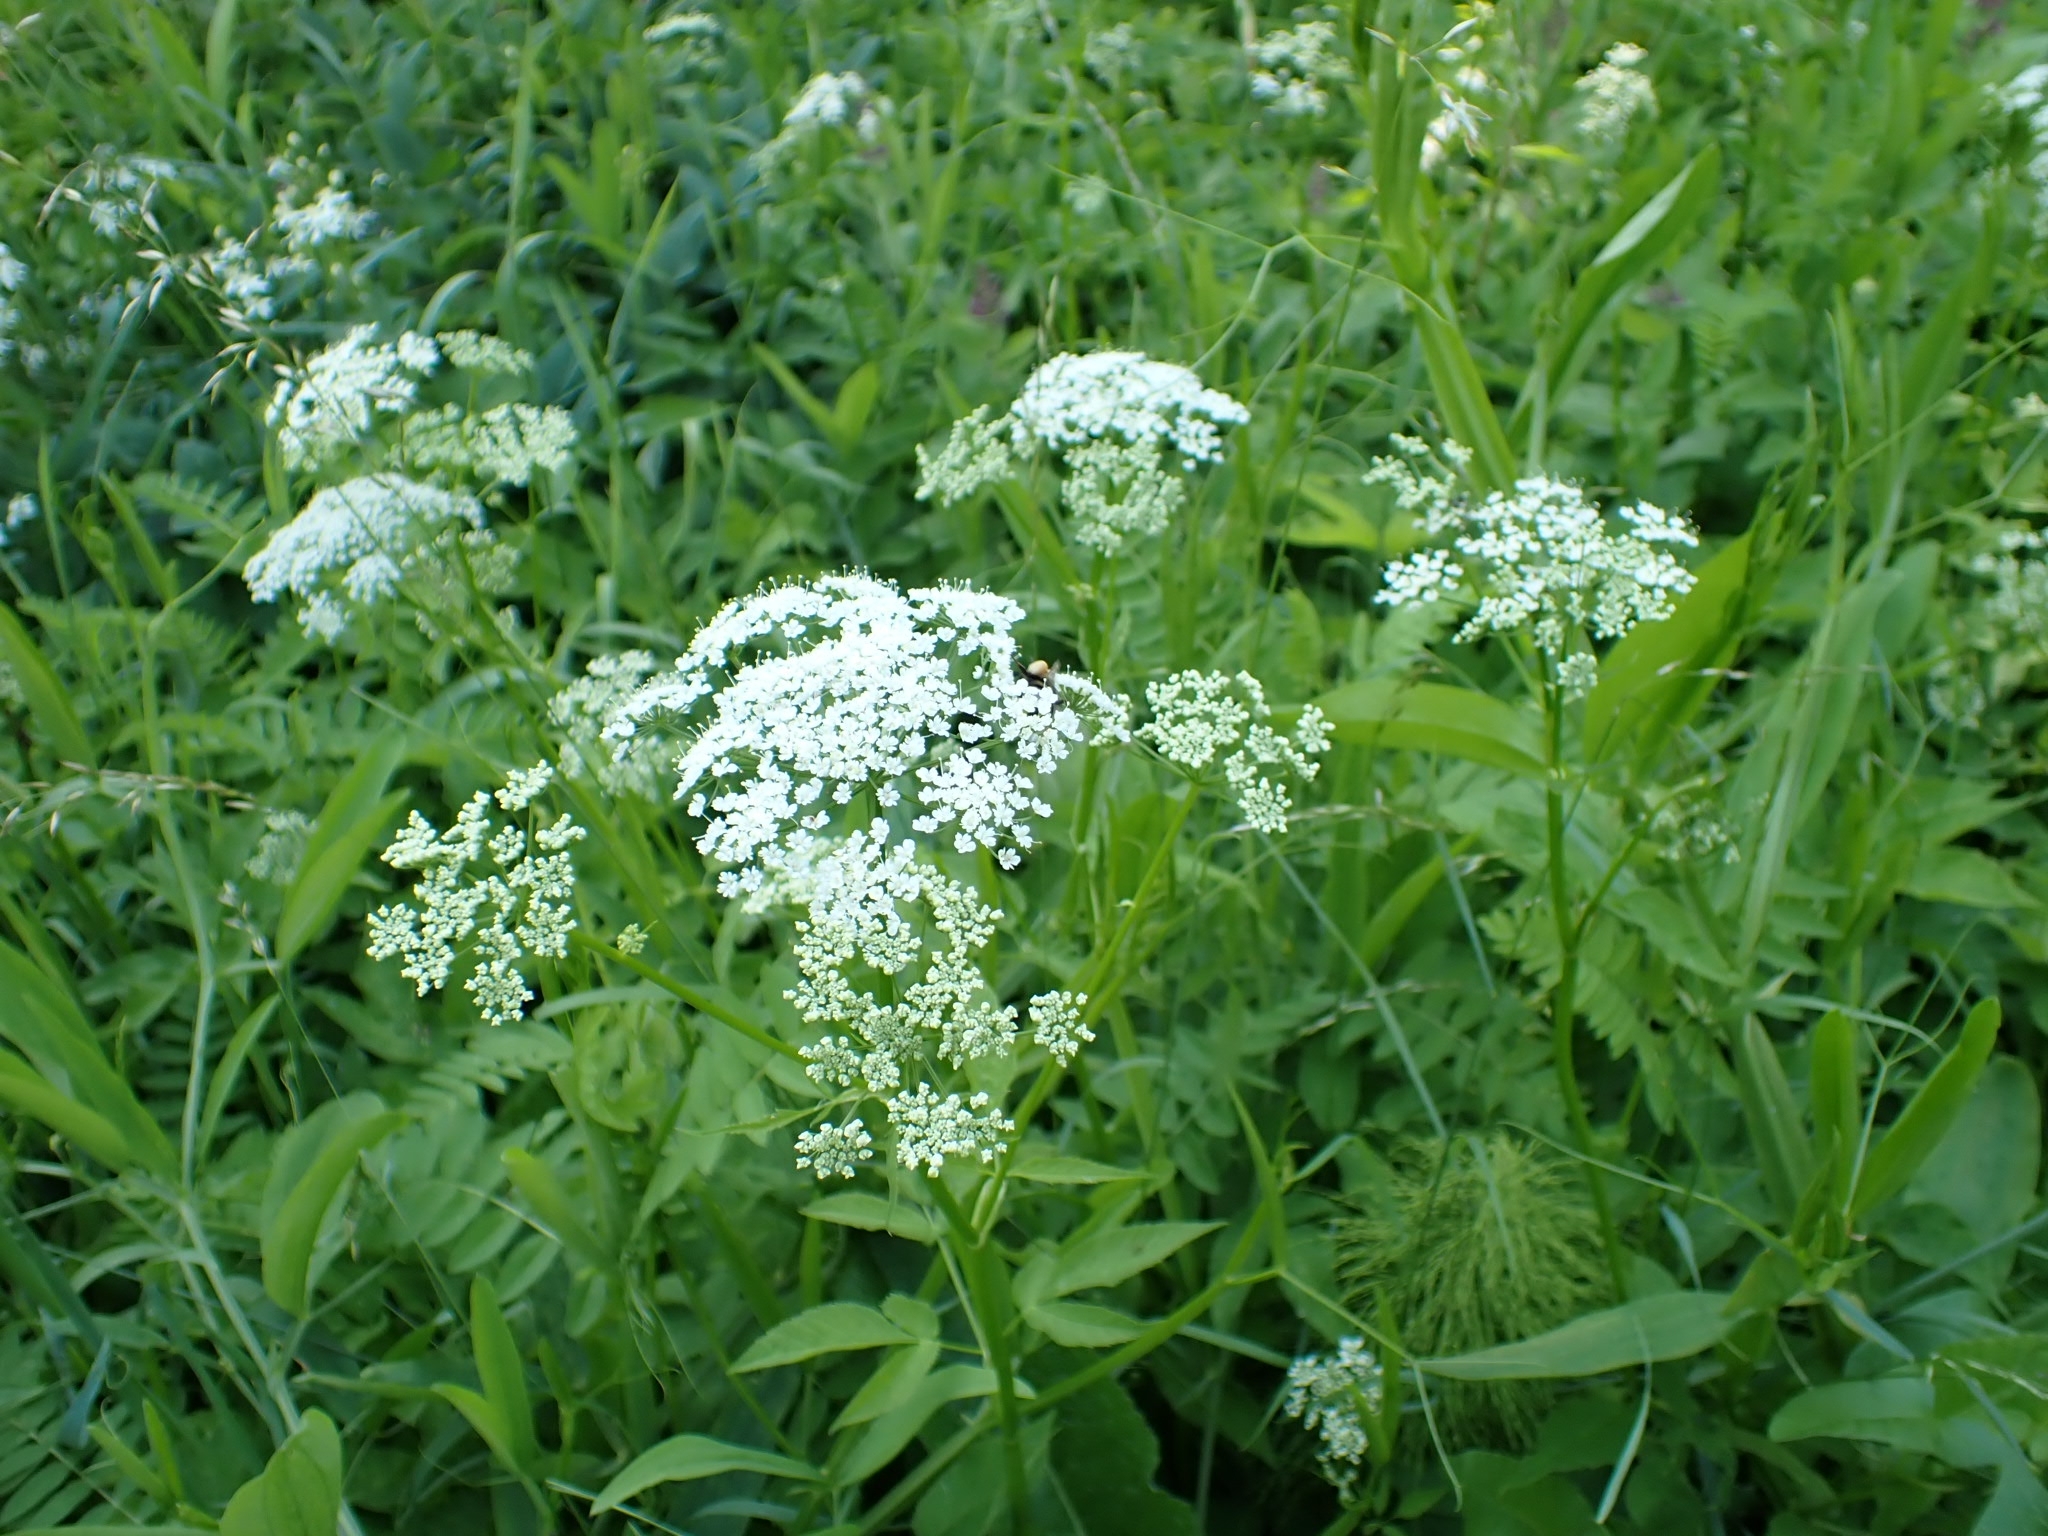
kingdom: Plantae
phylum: Tracheophyta
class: Magnoliopsida
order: Apiales
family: Apiaceae
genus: Aegopodium
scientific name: Aegopodium podagraria
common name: Ground-elder
